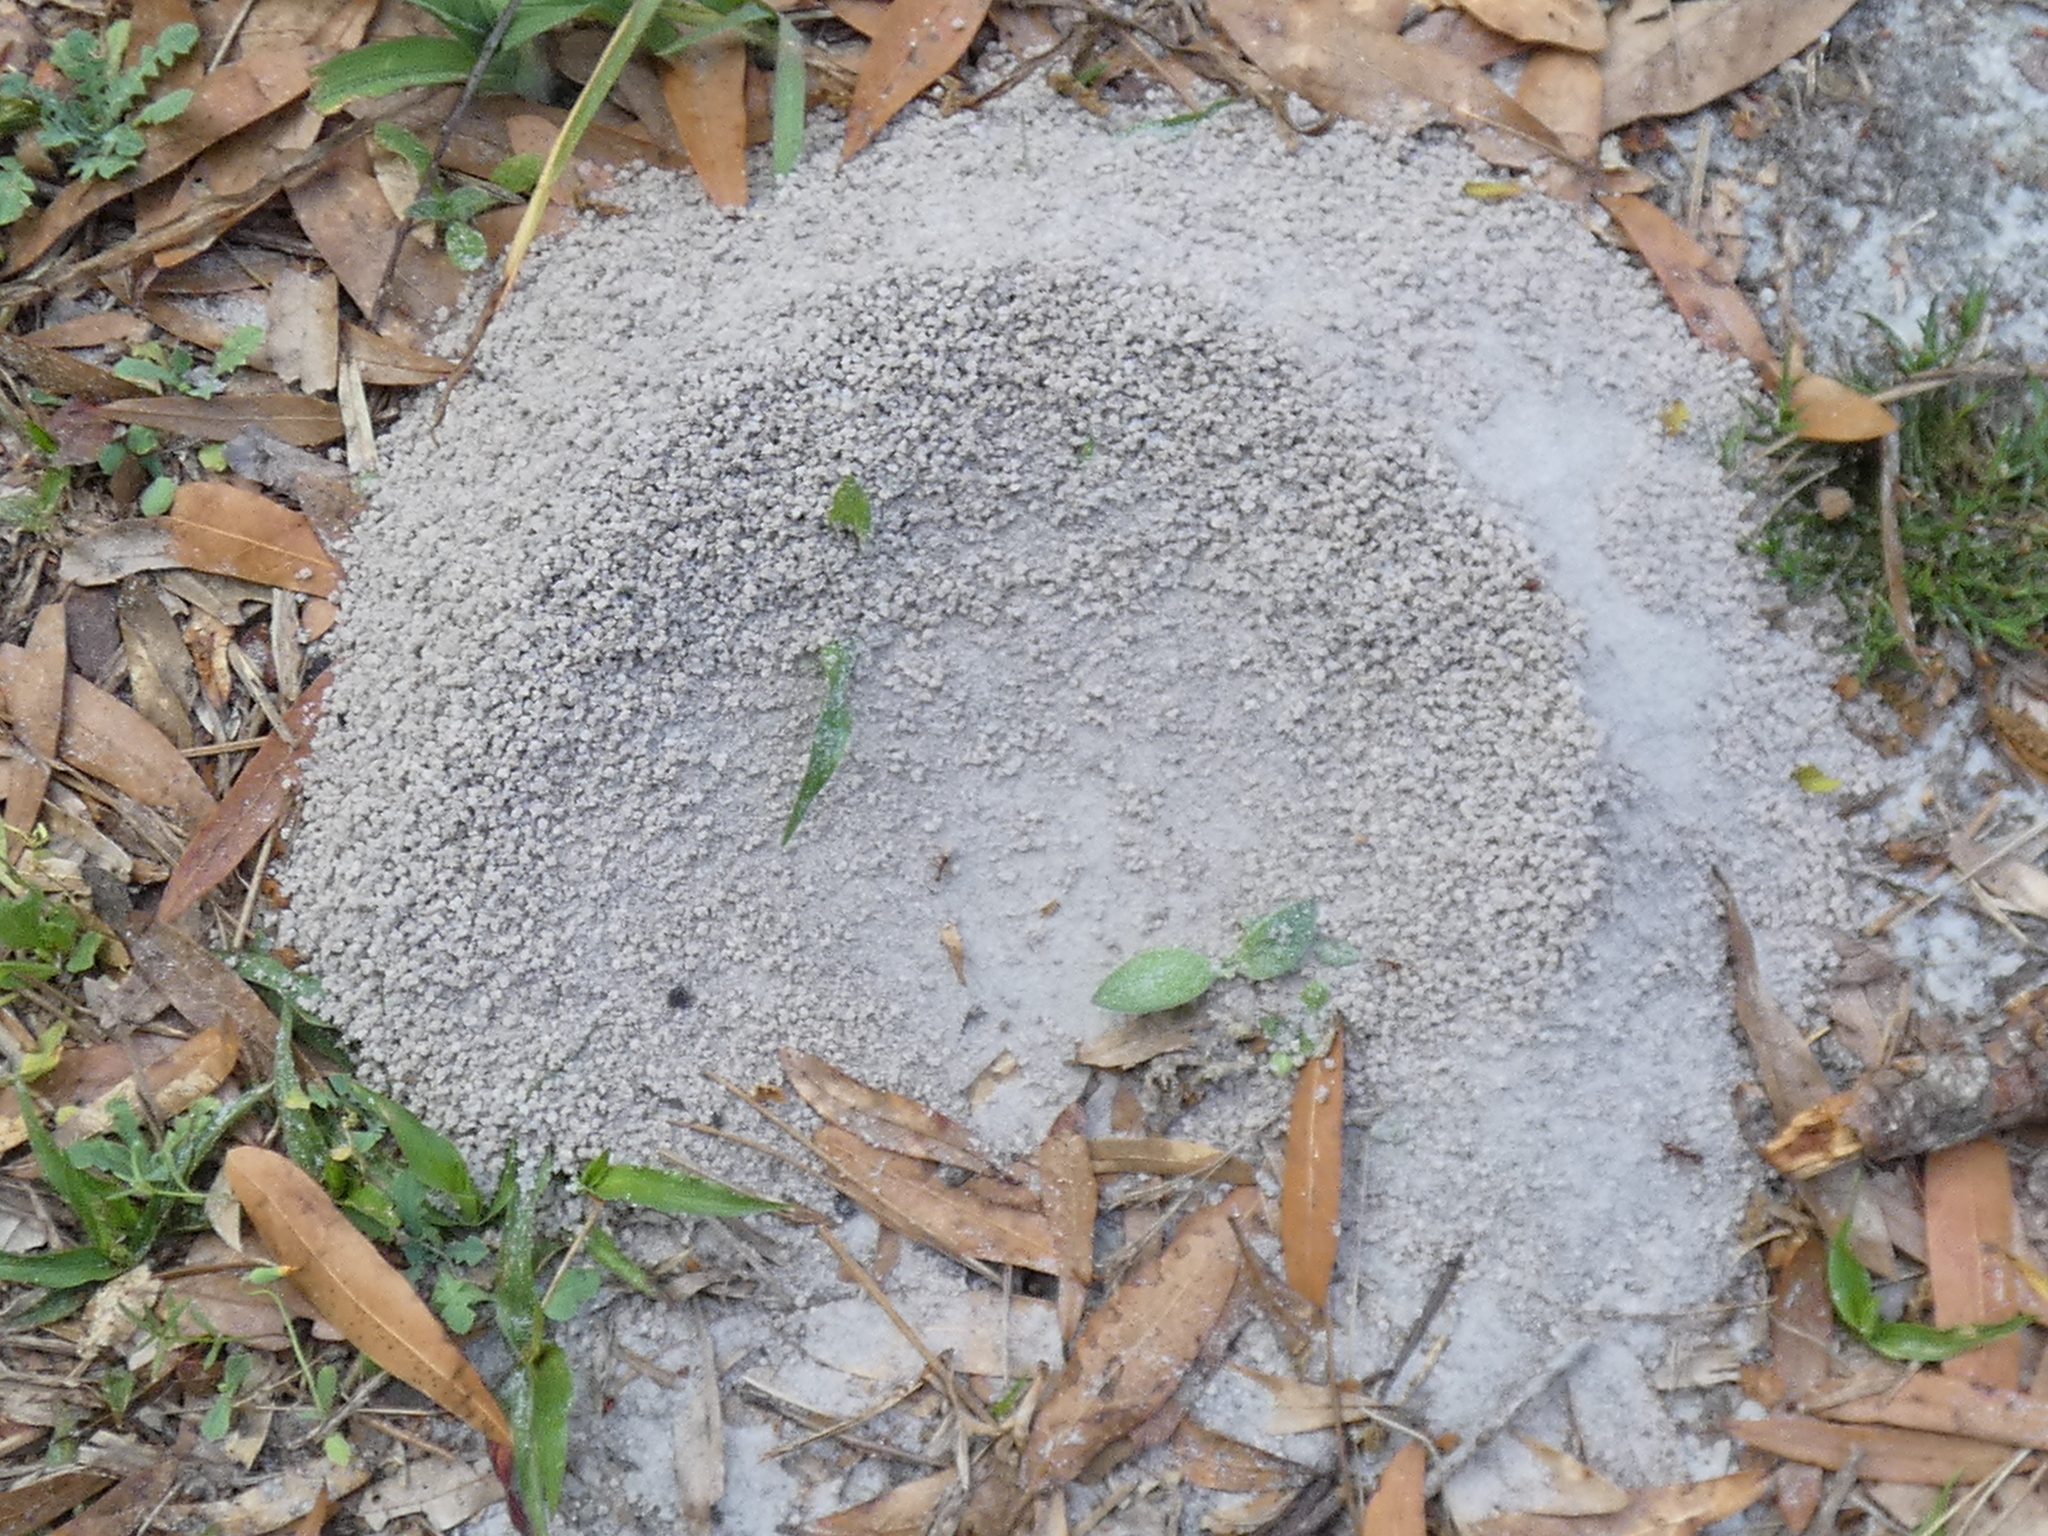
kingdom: Animalia
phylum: Arthropoda
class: Insecta
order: Hymenoptera
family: Formicidae
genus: Trachymyrmex
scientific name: Trachymyrmex septentrionalis
